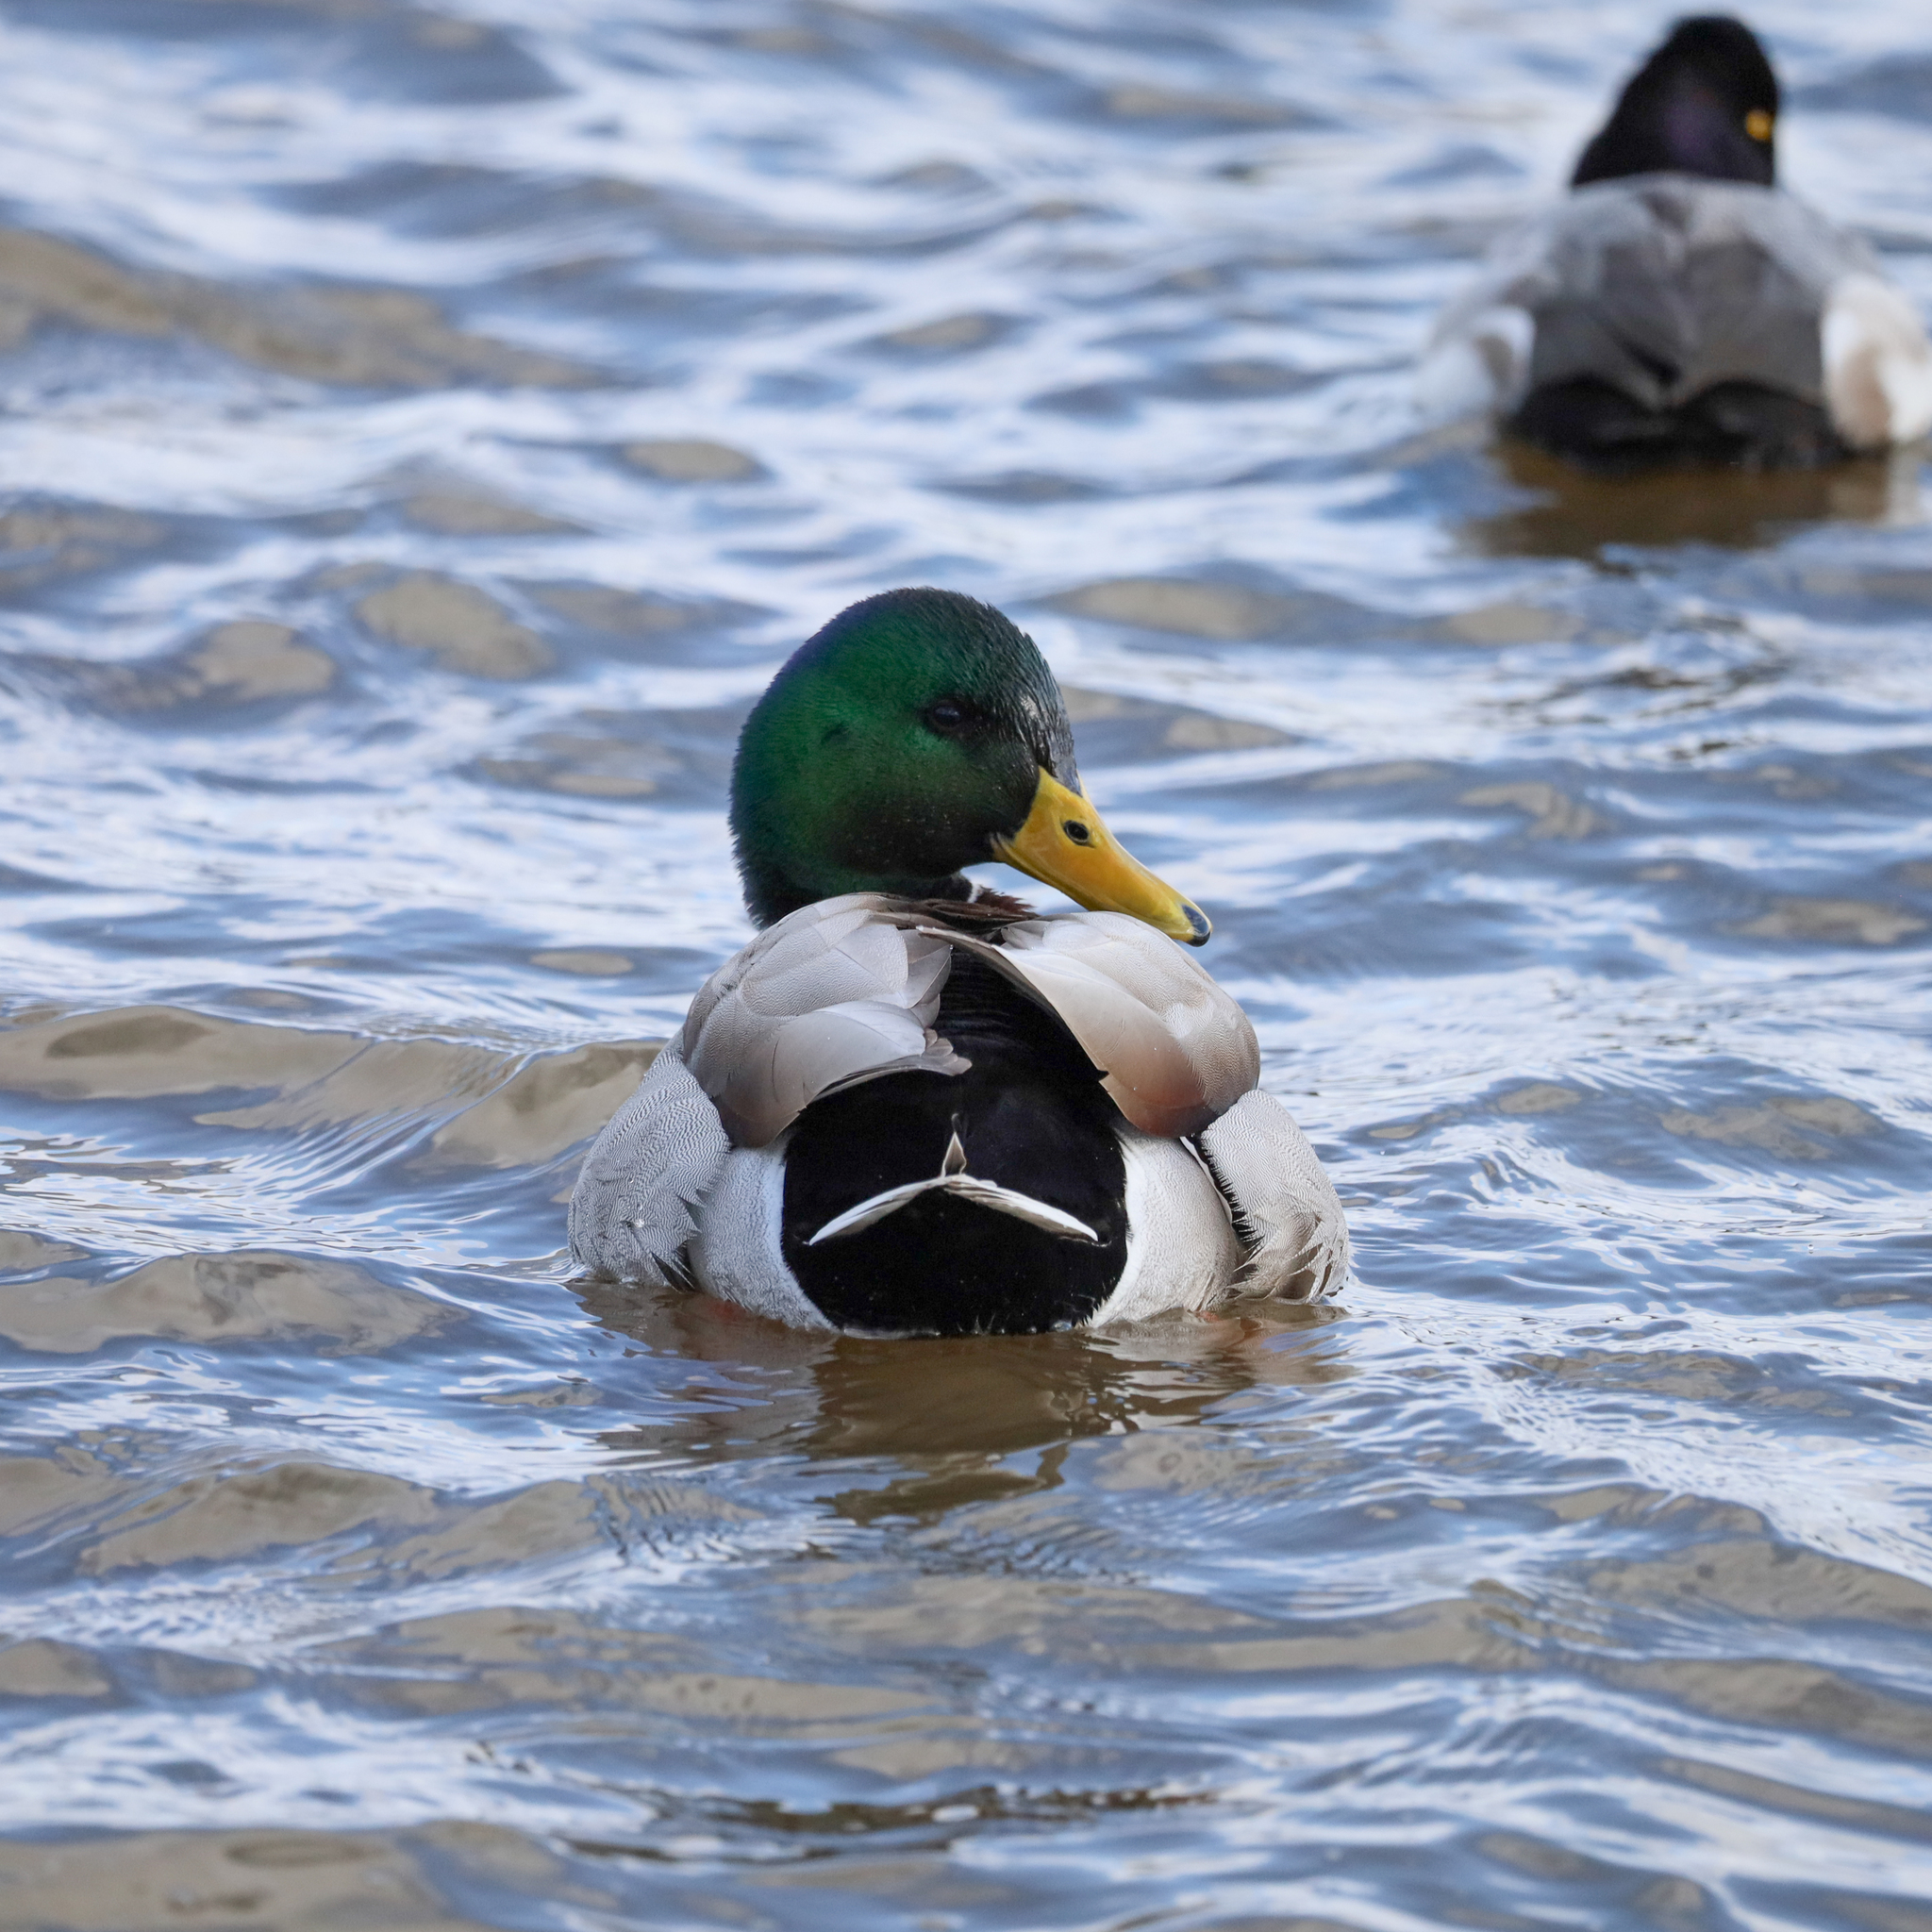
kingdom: Animalia
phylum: Chordata
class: Aves
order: Anseriformes
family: Anatidae
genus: Anas
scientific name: Anas platyrhynchos
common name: Mallard
